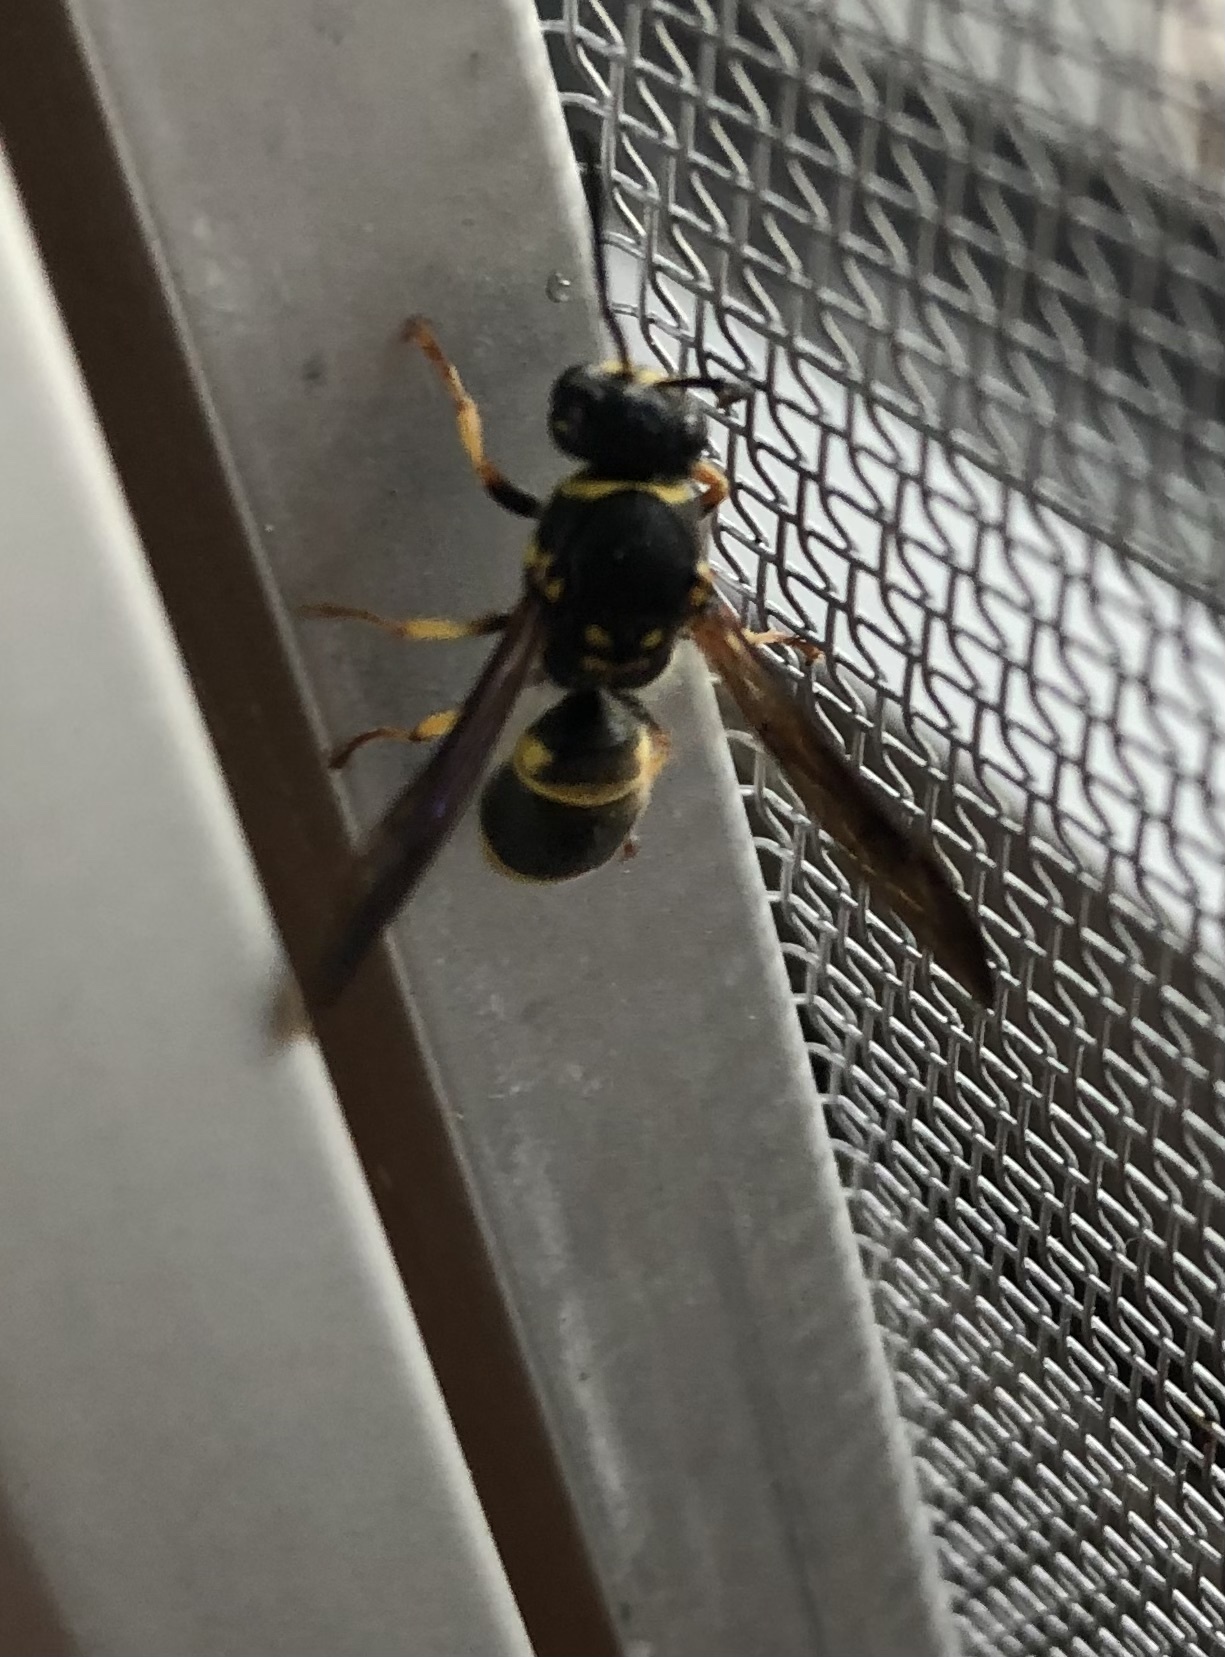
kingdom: Animalia
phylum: Arthropoda
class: Insecta
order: Hymenoptera
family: Vespidae
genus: Ancistrocerus
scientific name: Ancistrocerus campestris
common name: Smiling mason wasp
